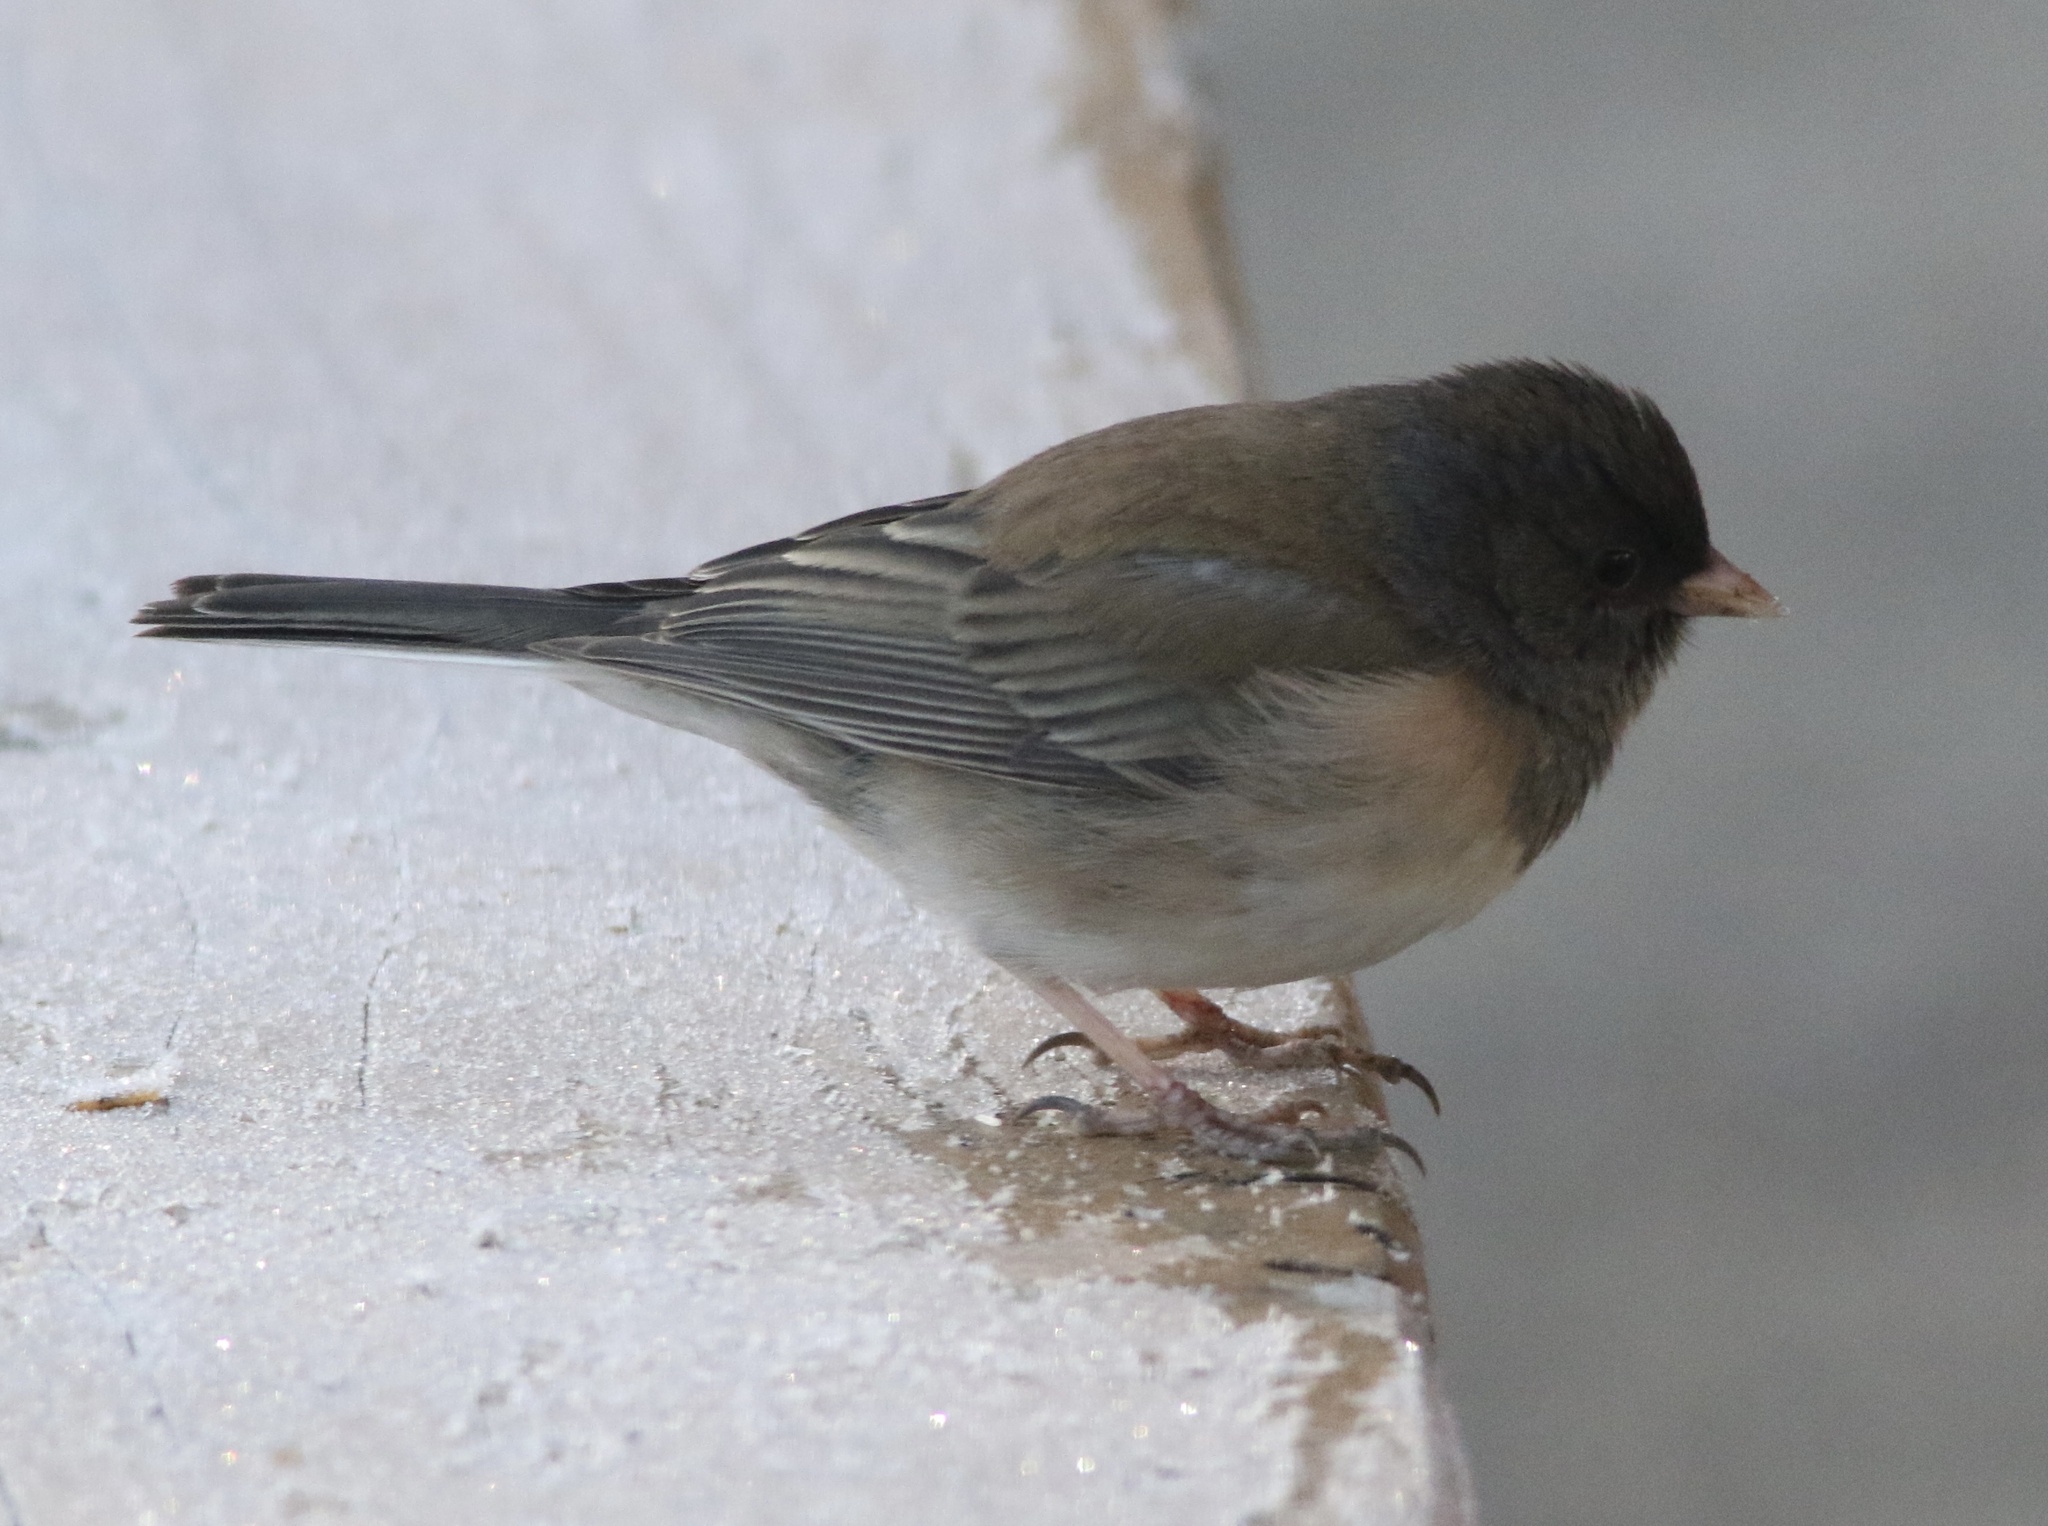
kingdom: Animalia
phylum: Chordata
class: Aves
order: Passeriformes
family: Passerellidae
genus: Junco
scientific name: Junco hyemalis
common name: Dark-eyed junco
